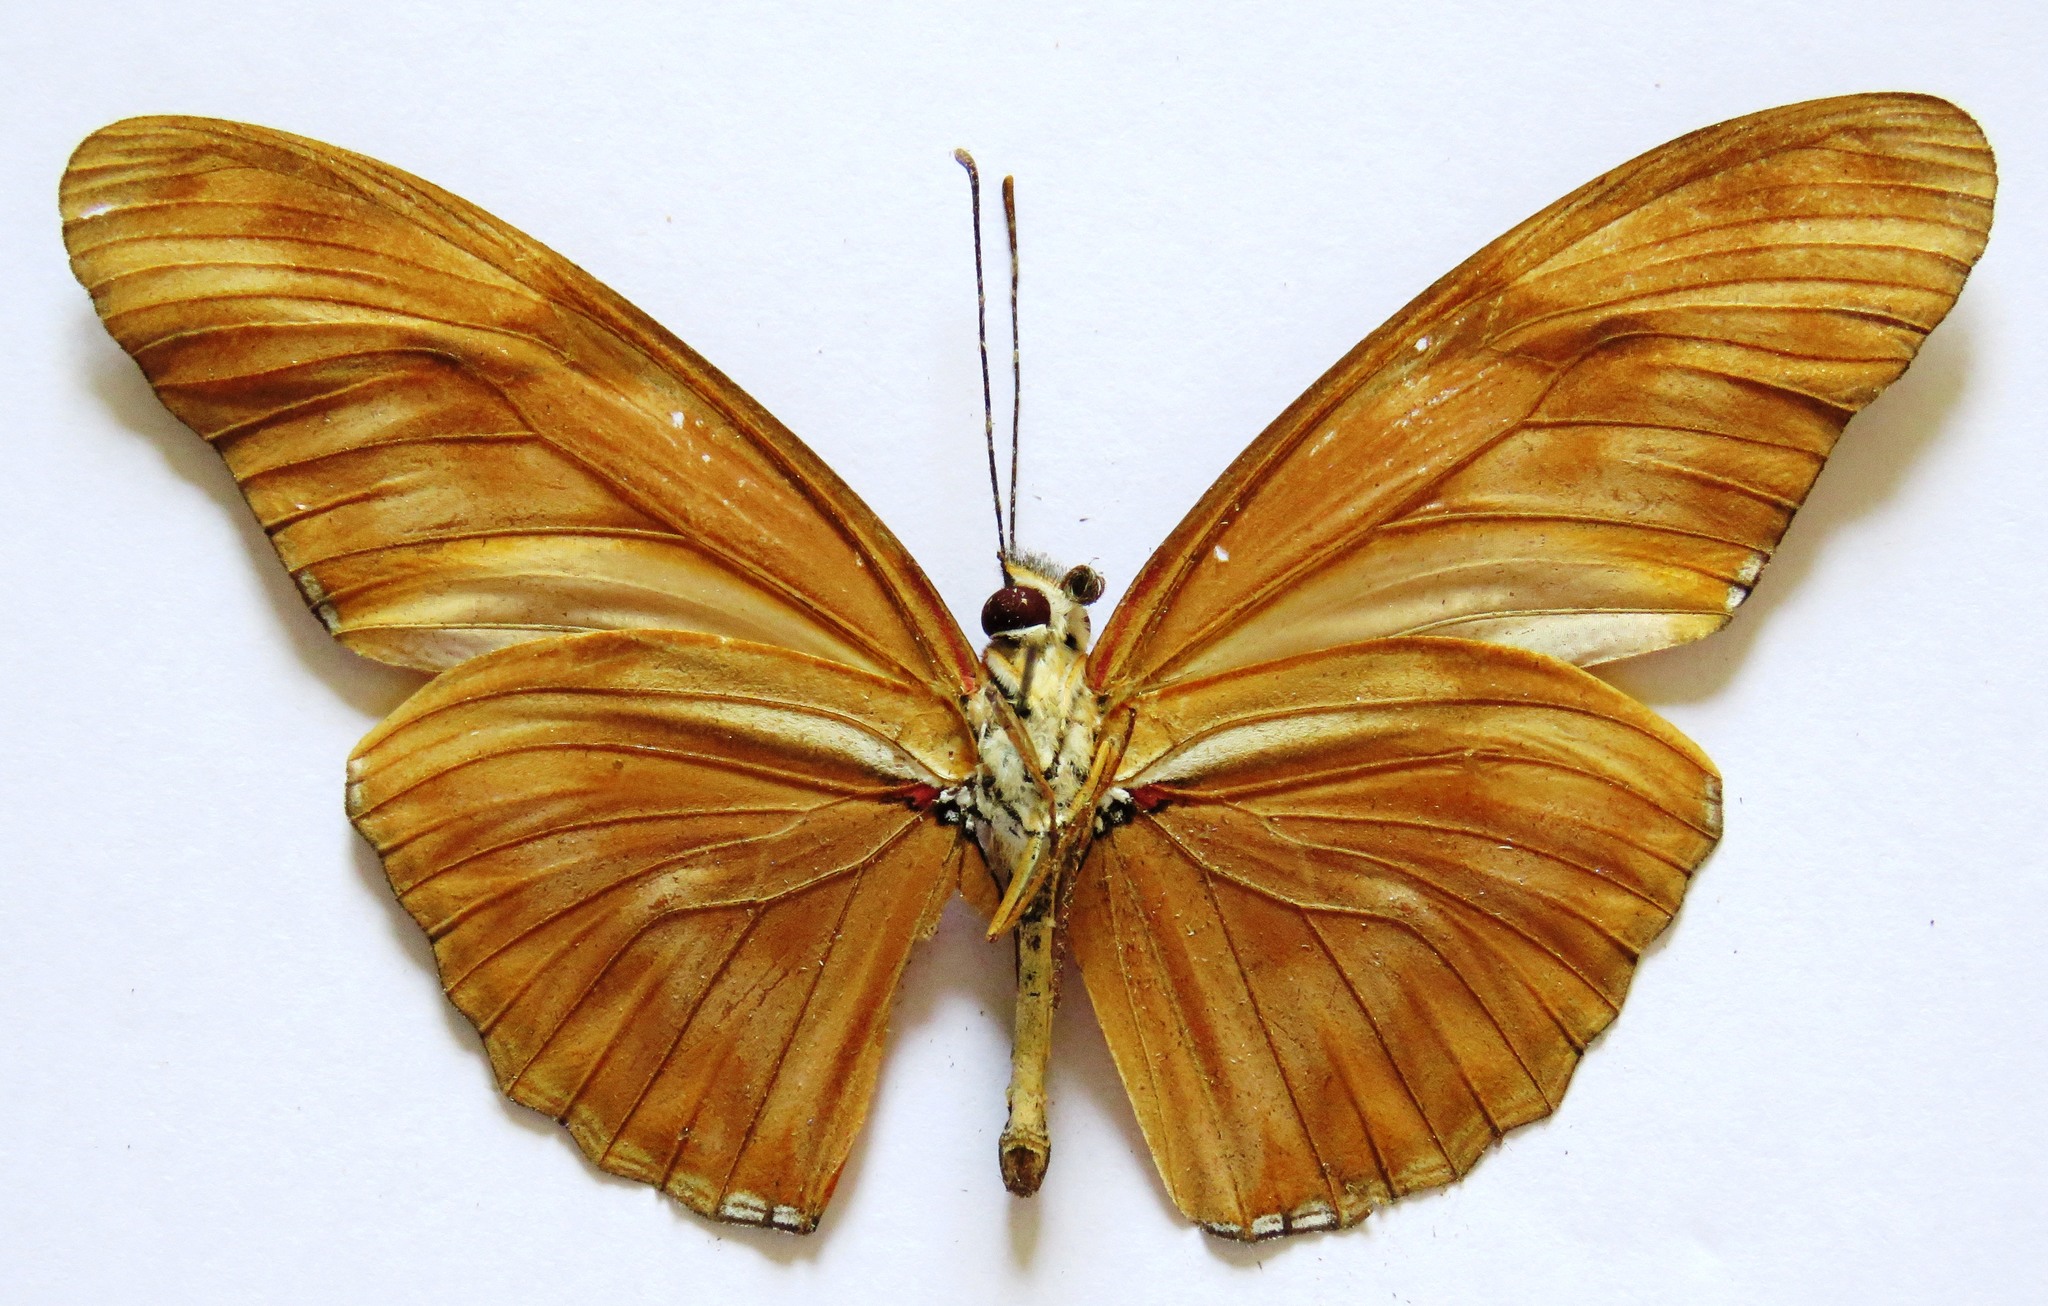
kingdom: Animalia
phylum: Arthropoda
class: Insecta
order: Lepidoptera
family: Nymphalidae
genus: Dryas
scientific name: Dryas iulia
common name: Flambeau
